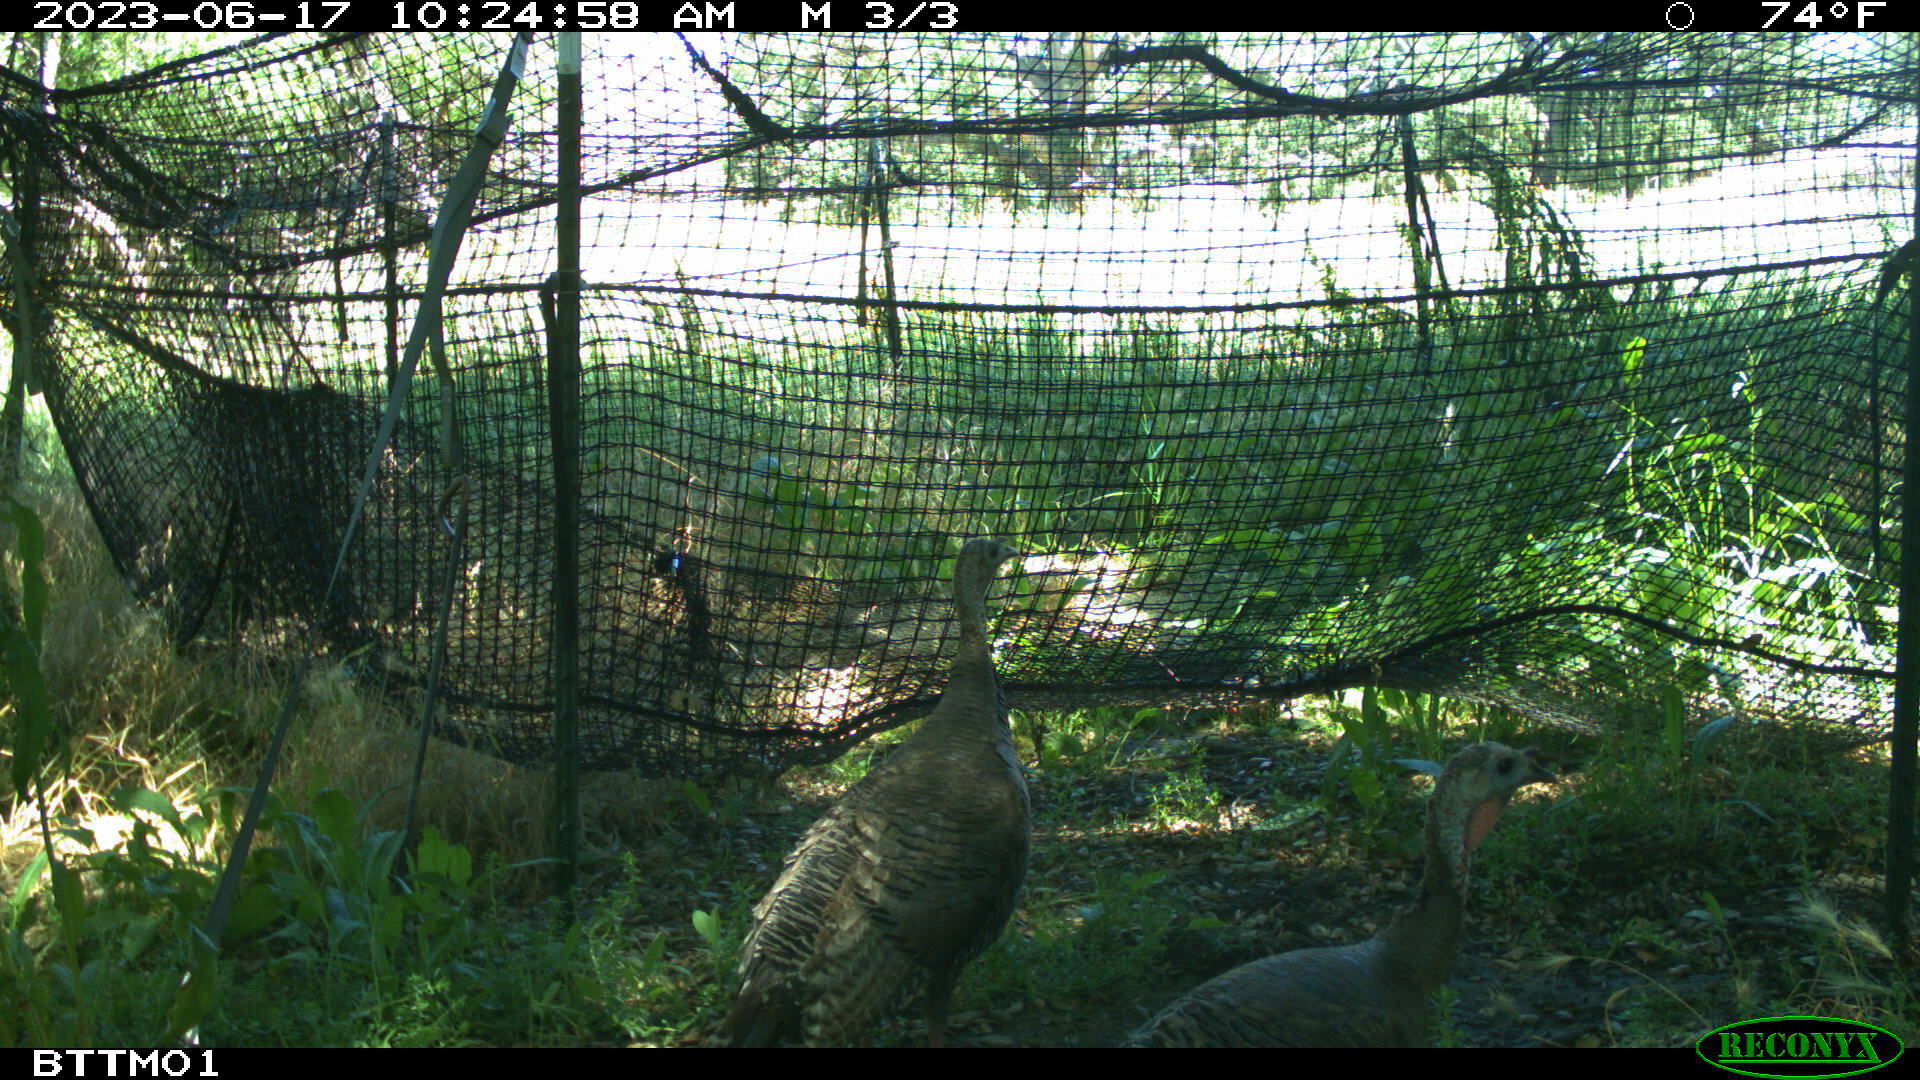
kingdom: Animalia
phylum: Chordata
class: Aves
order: Galliformes
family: Phasianidae
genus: Meleagris
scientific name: Meleagris gallopavo
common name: Wild turkey
